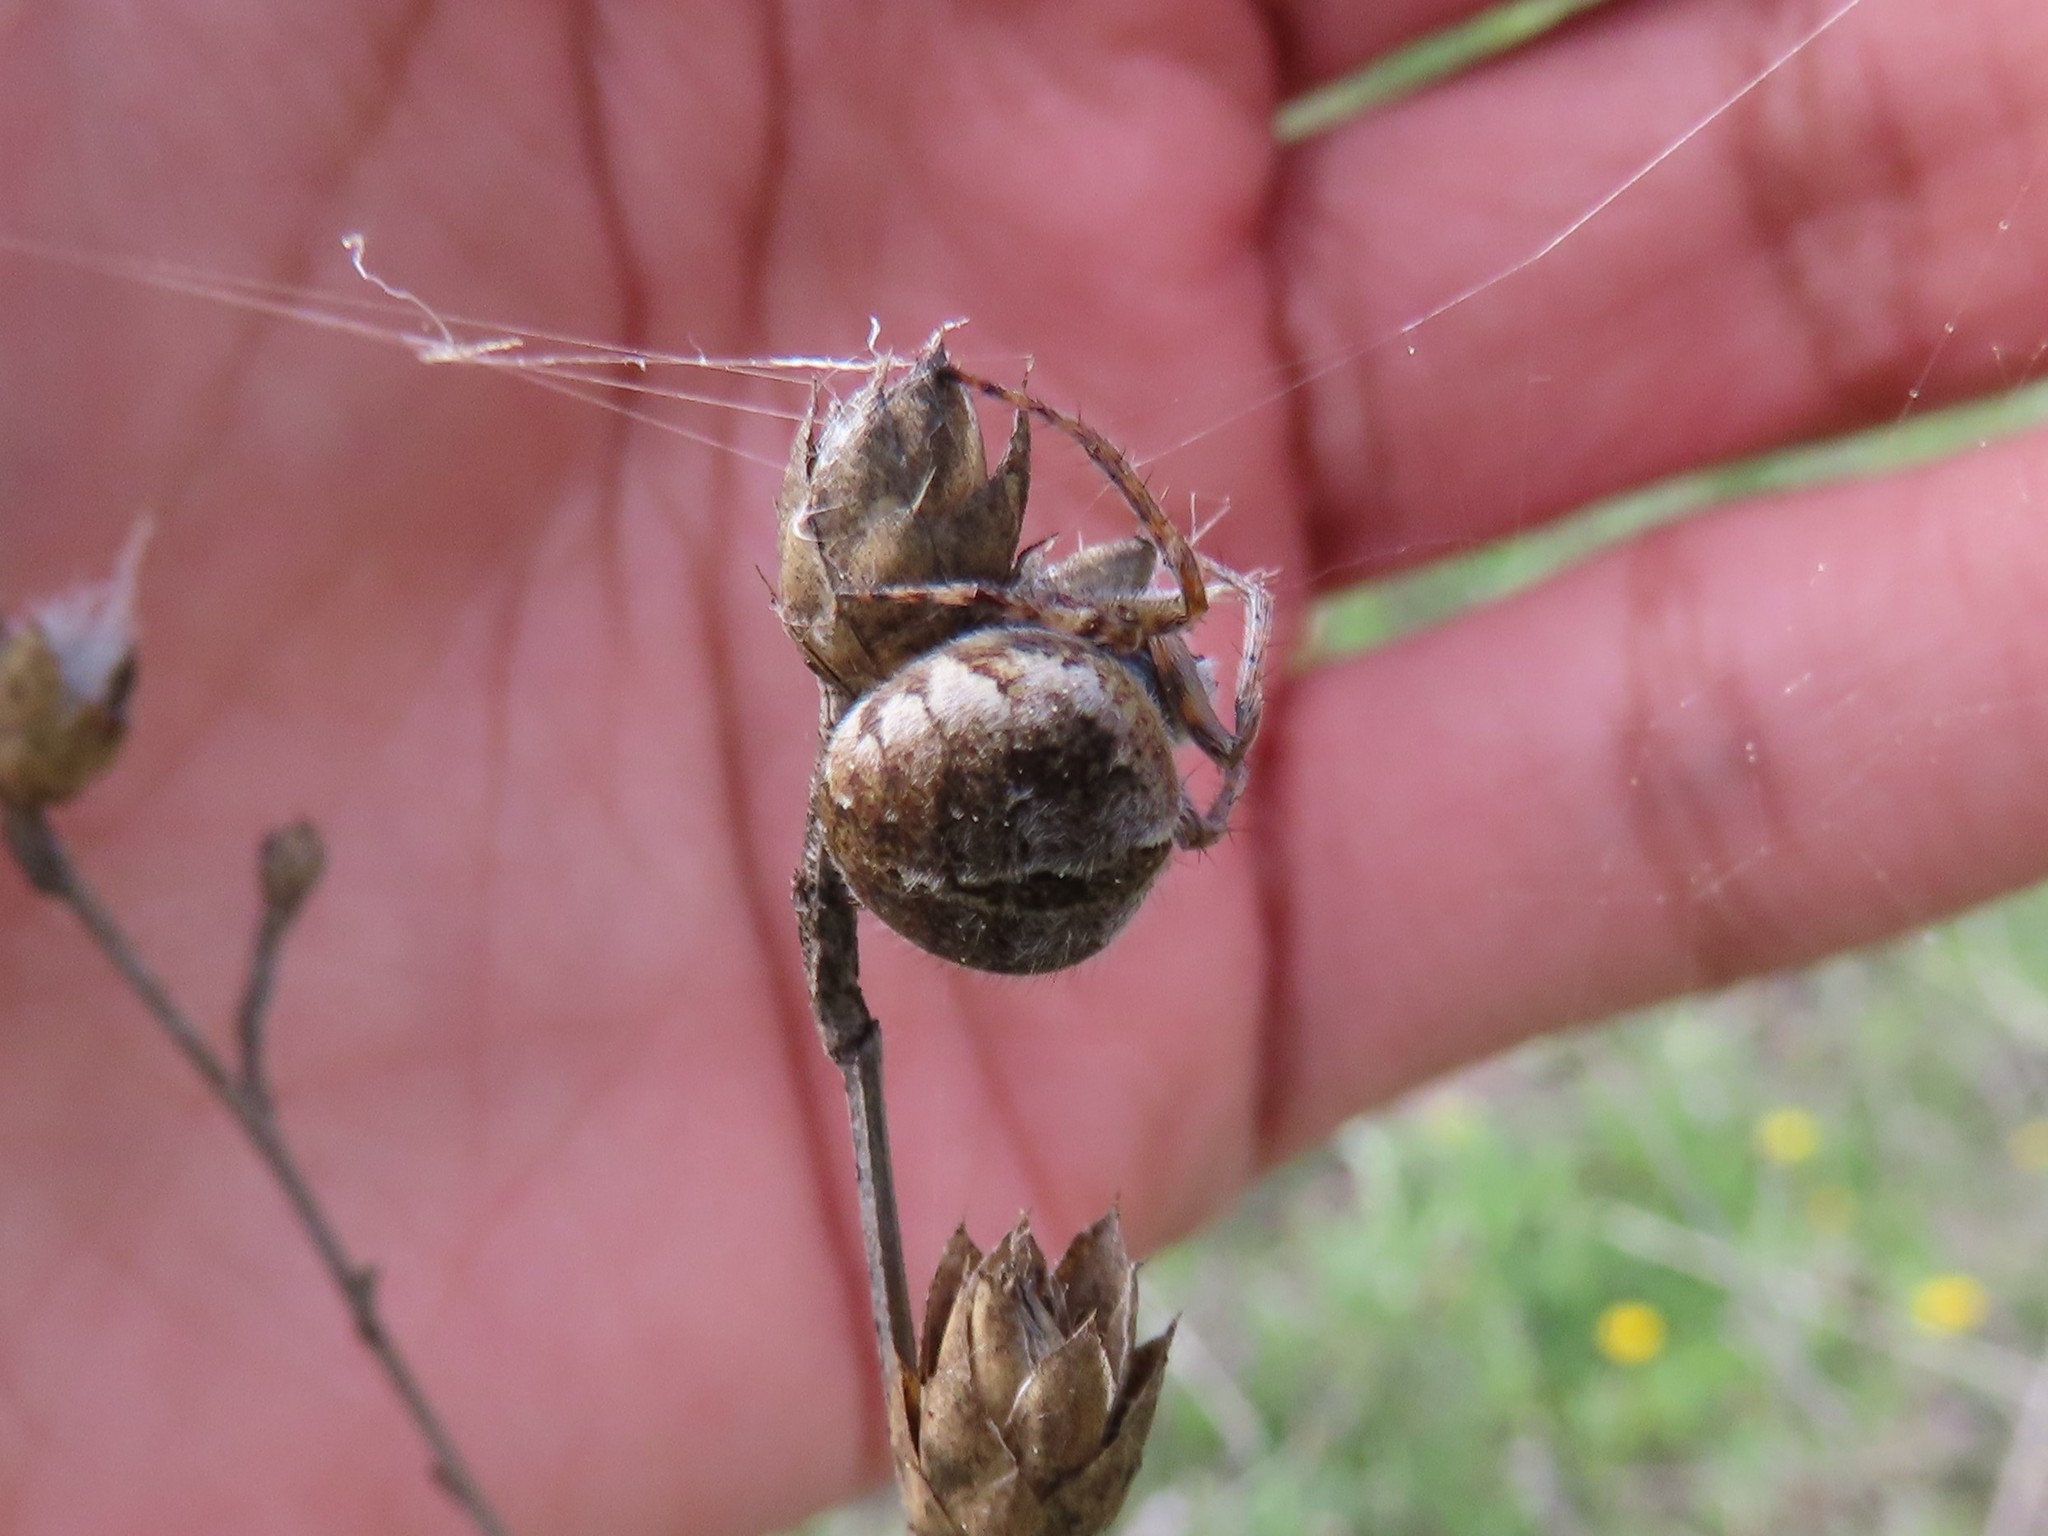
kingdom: Animalia
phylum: Arthropoda
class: Arachnida
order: Araneae
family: Araneidae
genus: Agalenatea
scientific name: Agalenatea redii
